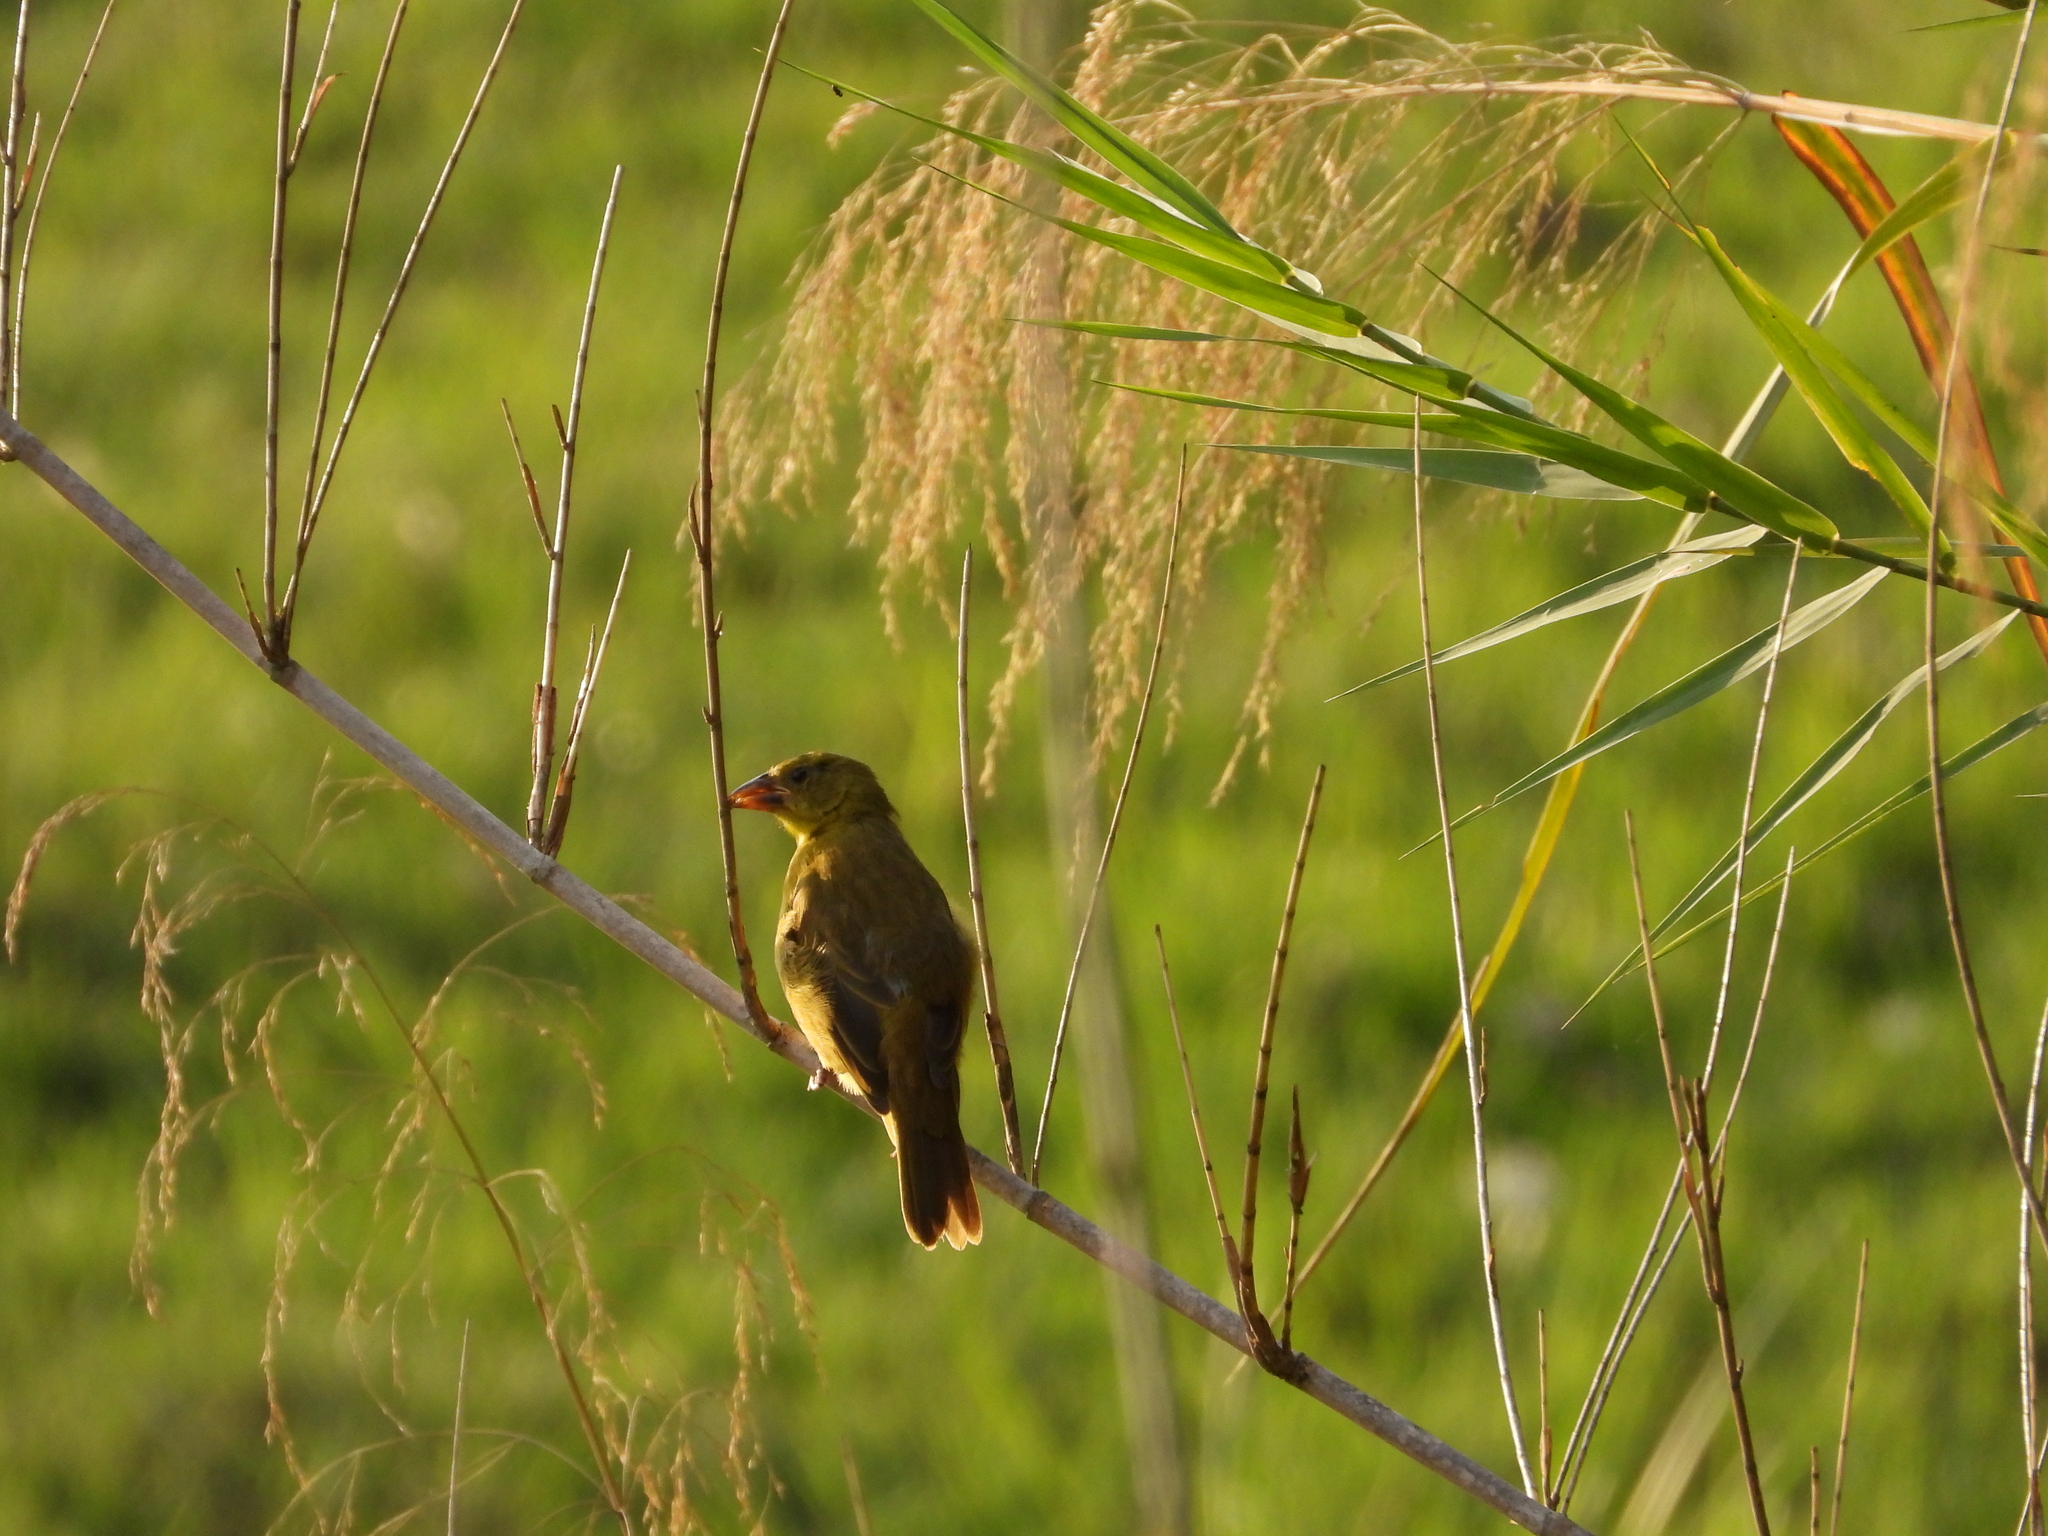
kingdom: Animalia
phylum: Chordata
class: Aves
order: Passeriformes
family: Ploceidae
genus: Ploceus
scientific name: Ploceus xanthops
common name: Holub's golden weaver
